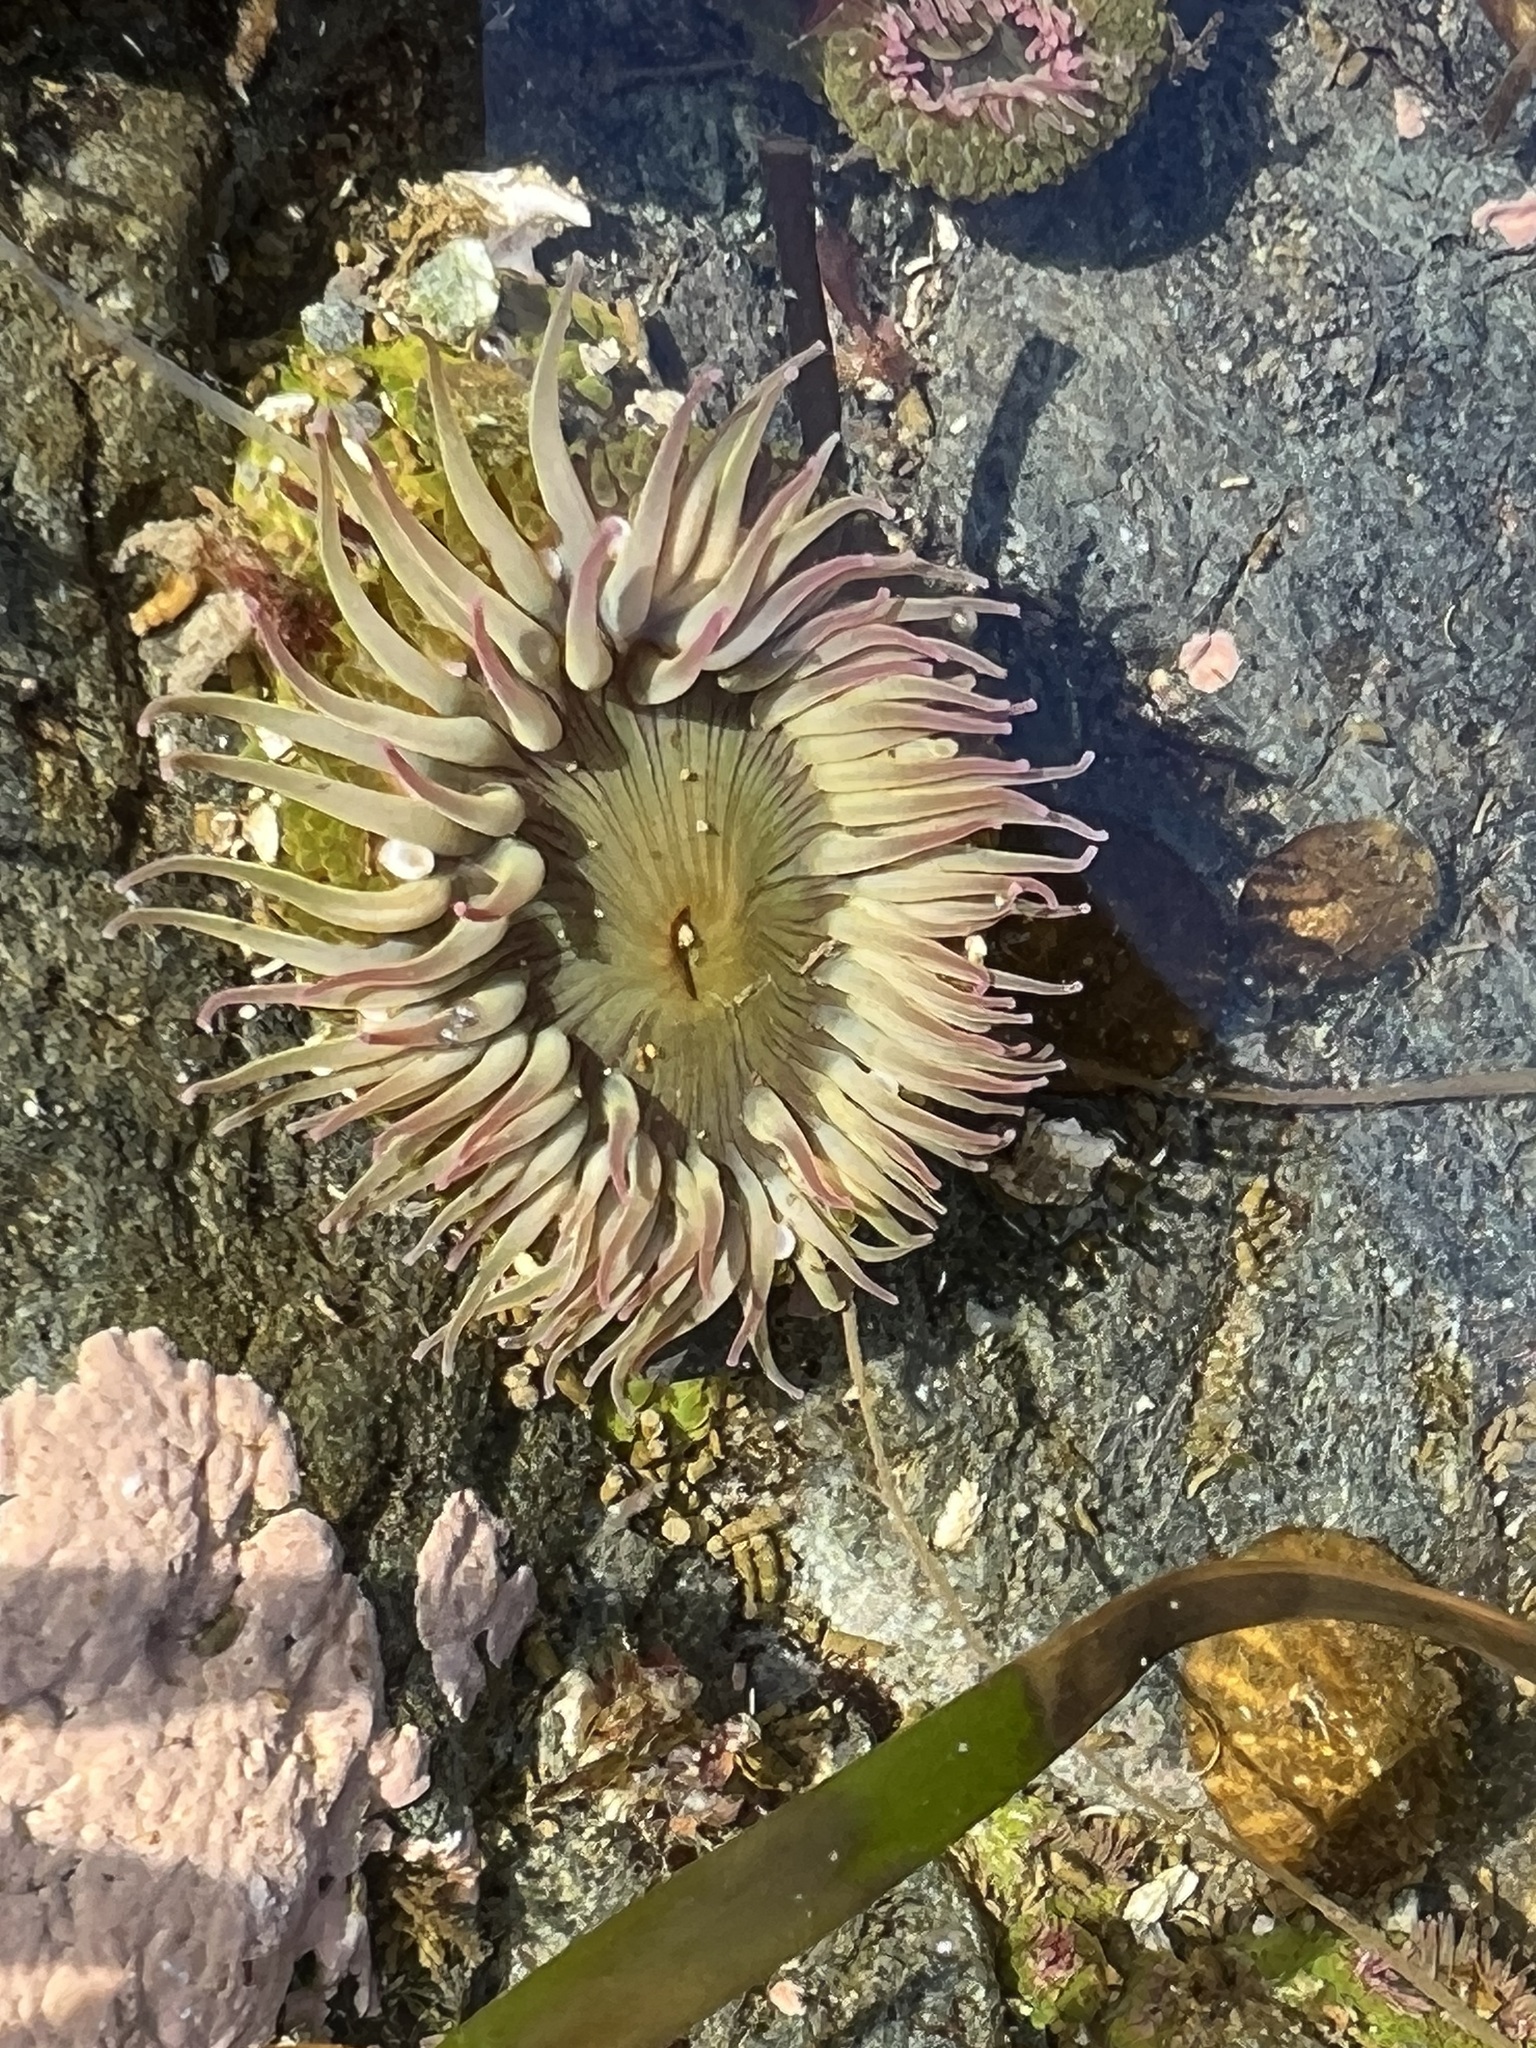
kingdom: Animalia
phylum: Cnidaria
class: Anthozoa
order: Actiniaria
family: Actiniidae
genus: Anthopleura
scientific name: Anthopleura elegantissima
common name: Clonal anemone
